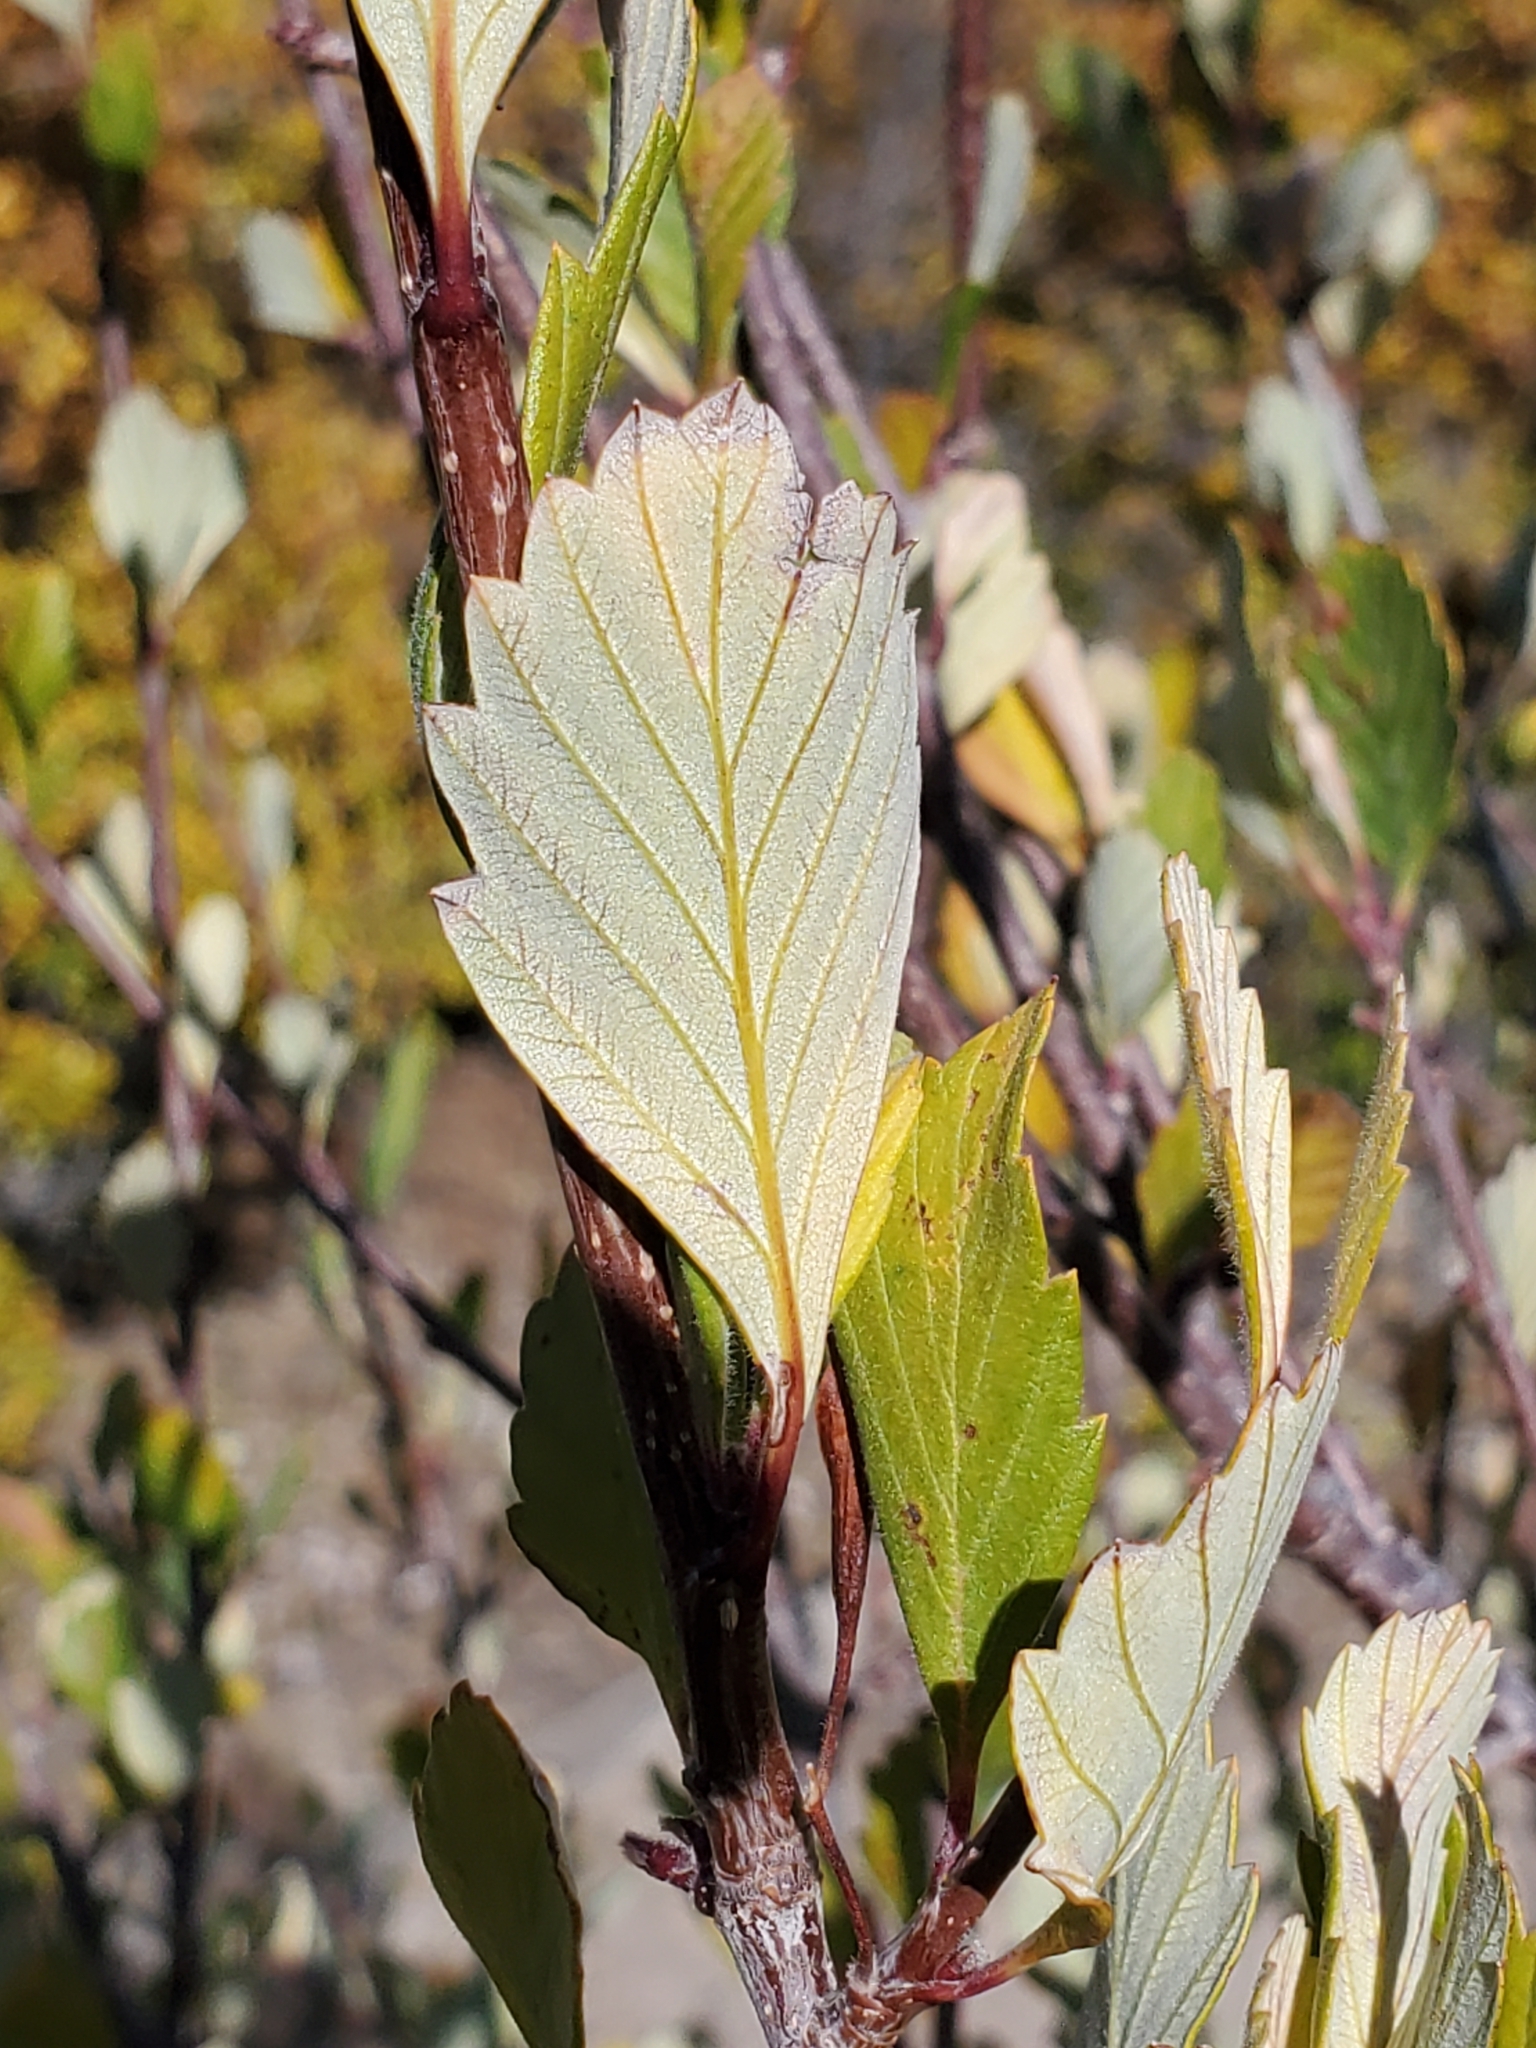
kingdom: Plantae
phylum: Tracheophyta
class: Magnoliopsida
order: Rosales
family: Rosaceae
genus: Cercocarpus
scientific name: Cercocarpus montanus
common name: Alder-leaf cercocarpus
